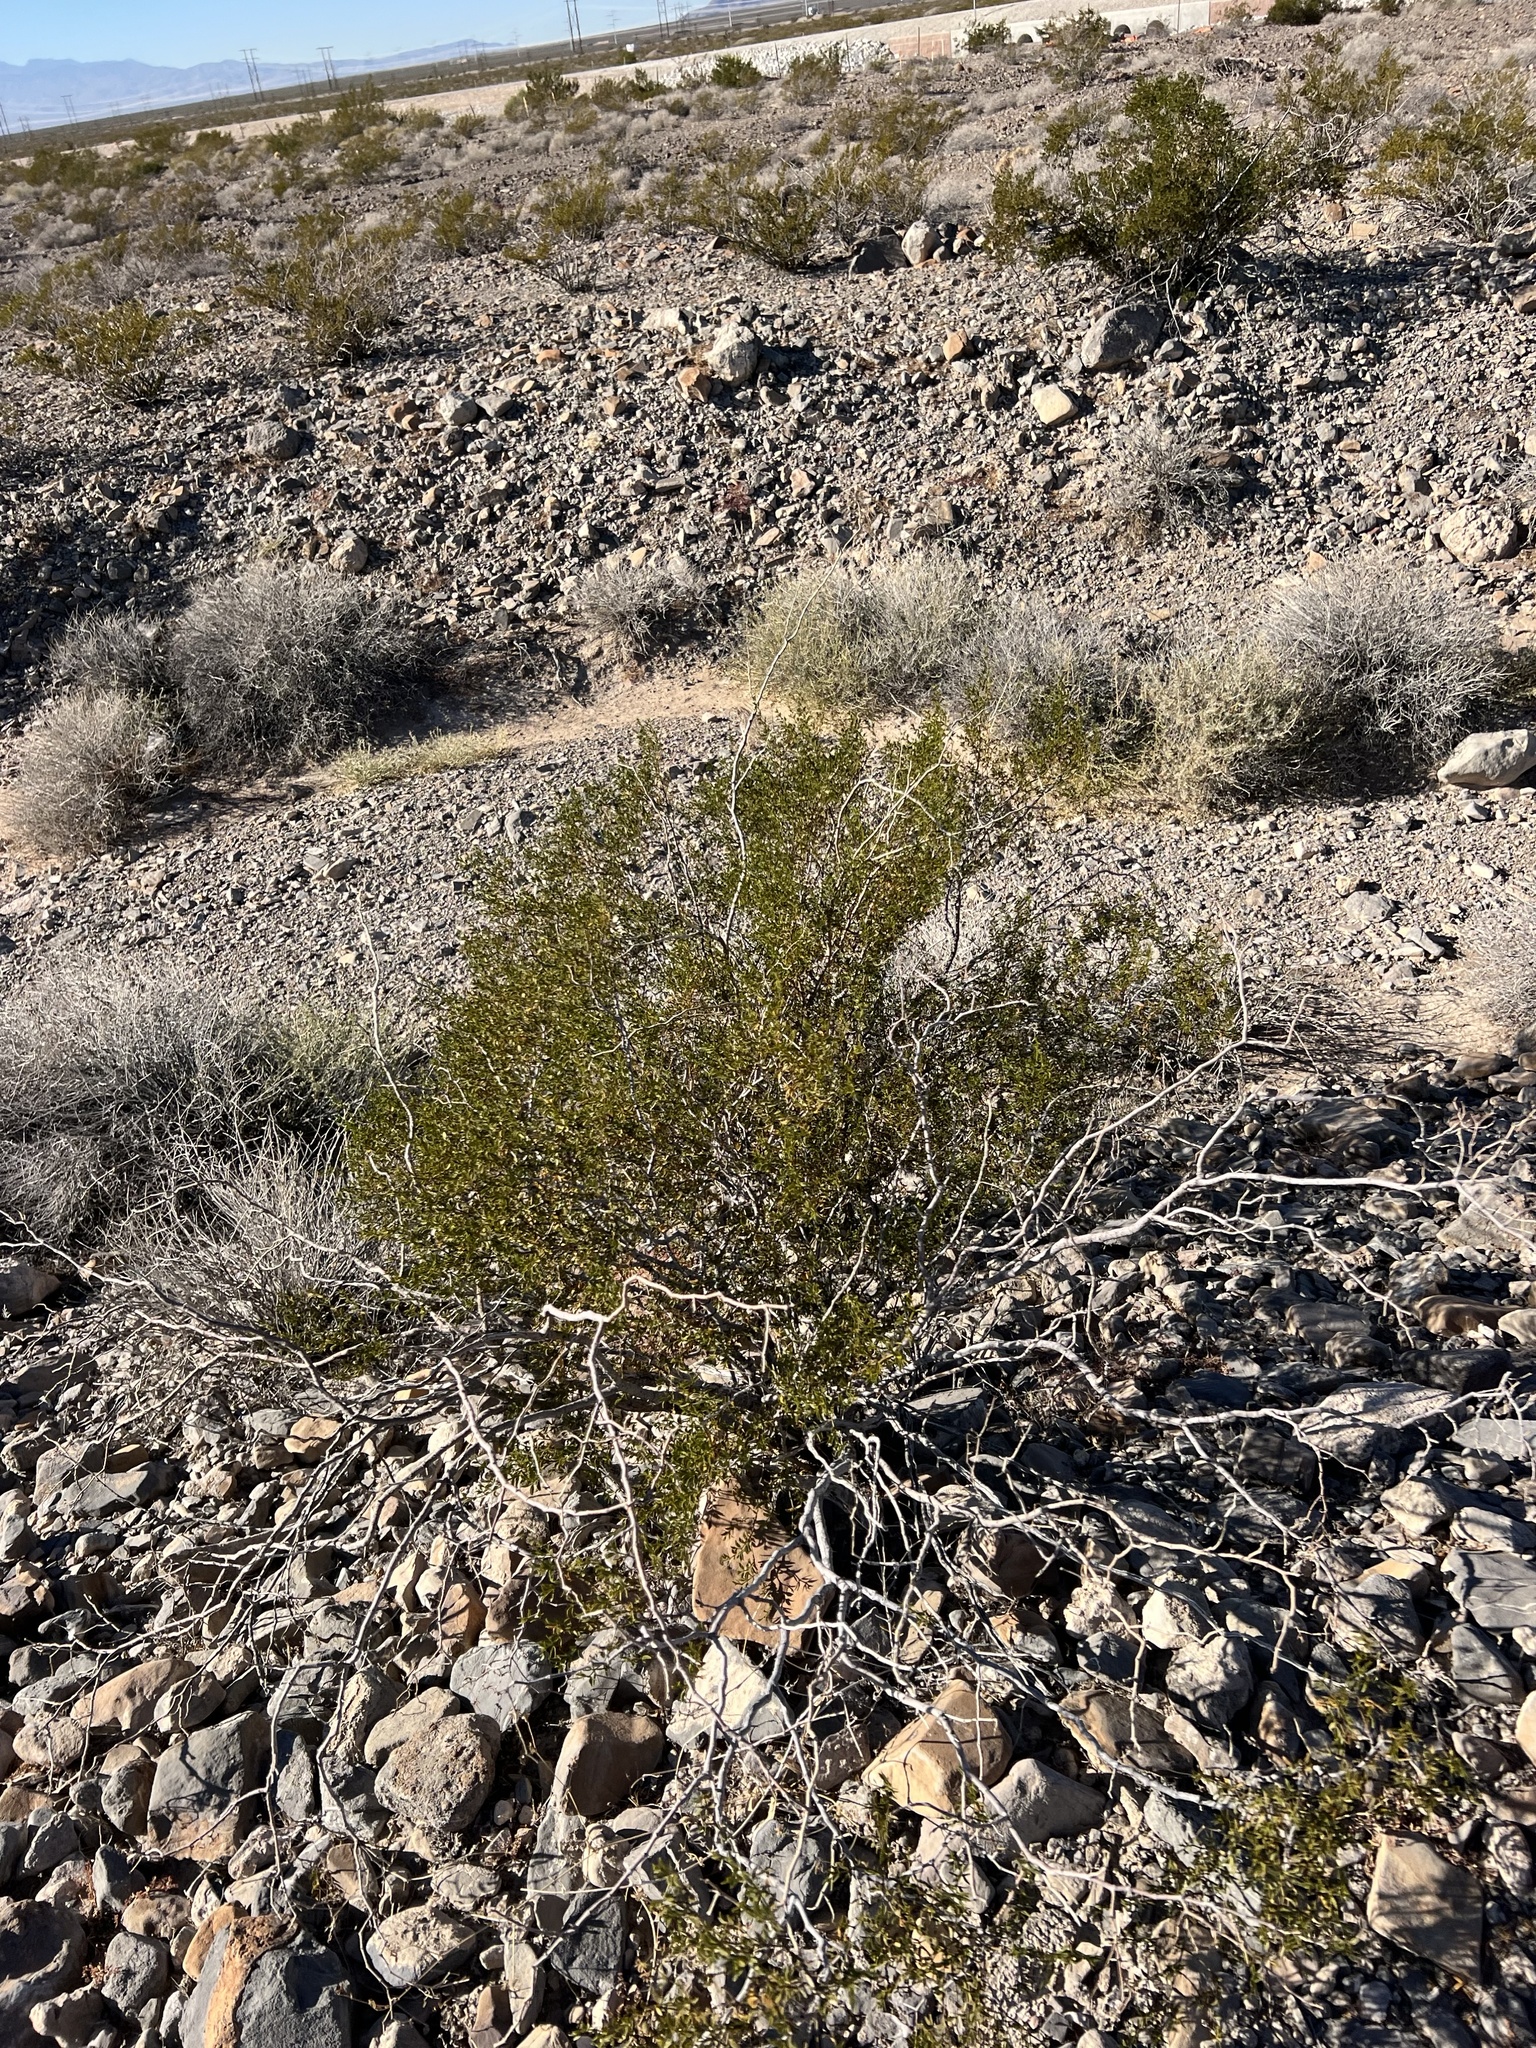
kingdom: Plantae
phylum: Tracheophyta
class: Magnoliopsida
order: Zygophyllales
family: Zygophyllaceae
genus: Larrea
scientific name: Larrea tridentata
